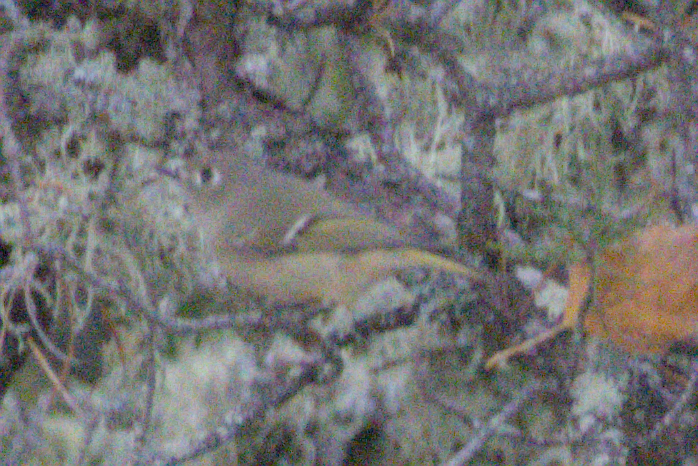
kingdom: Animalia
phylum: Chordata
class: Aves
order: Passeriformes
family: Regulidae
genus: Regulus
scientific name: Regulus calendula
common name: Ruby-crowned kinglet
